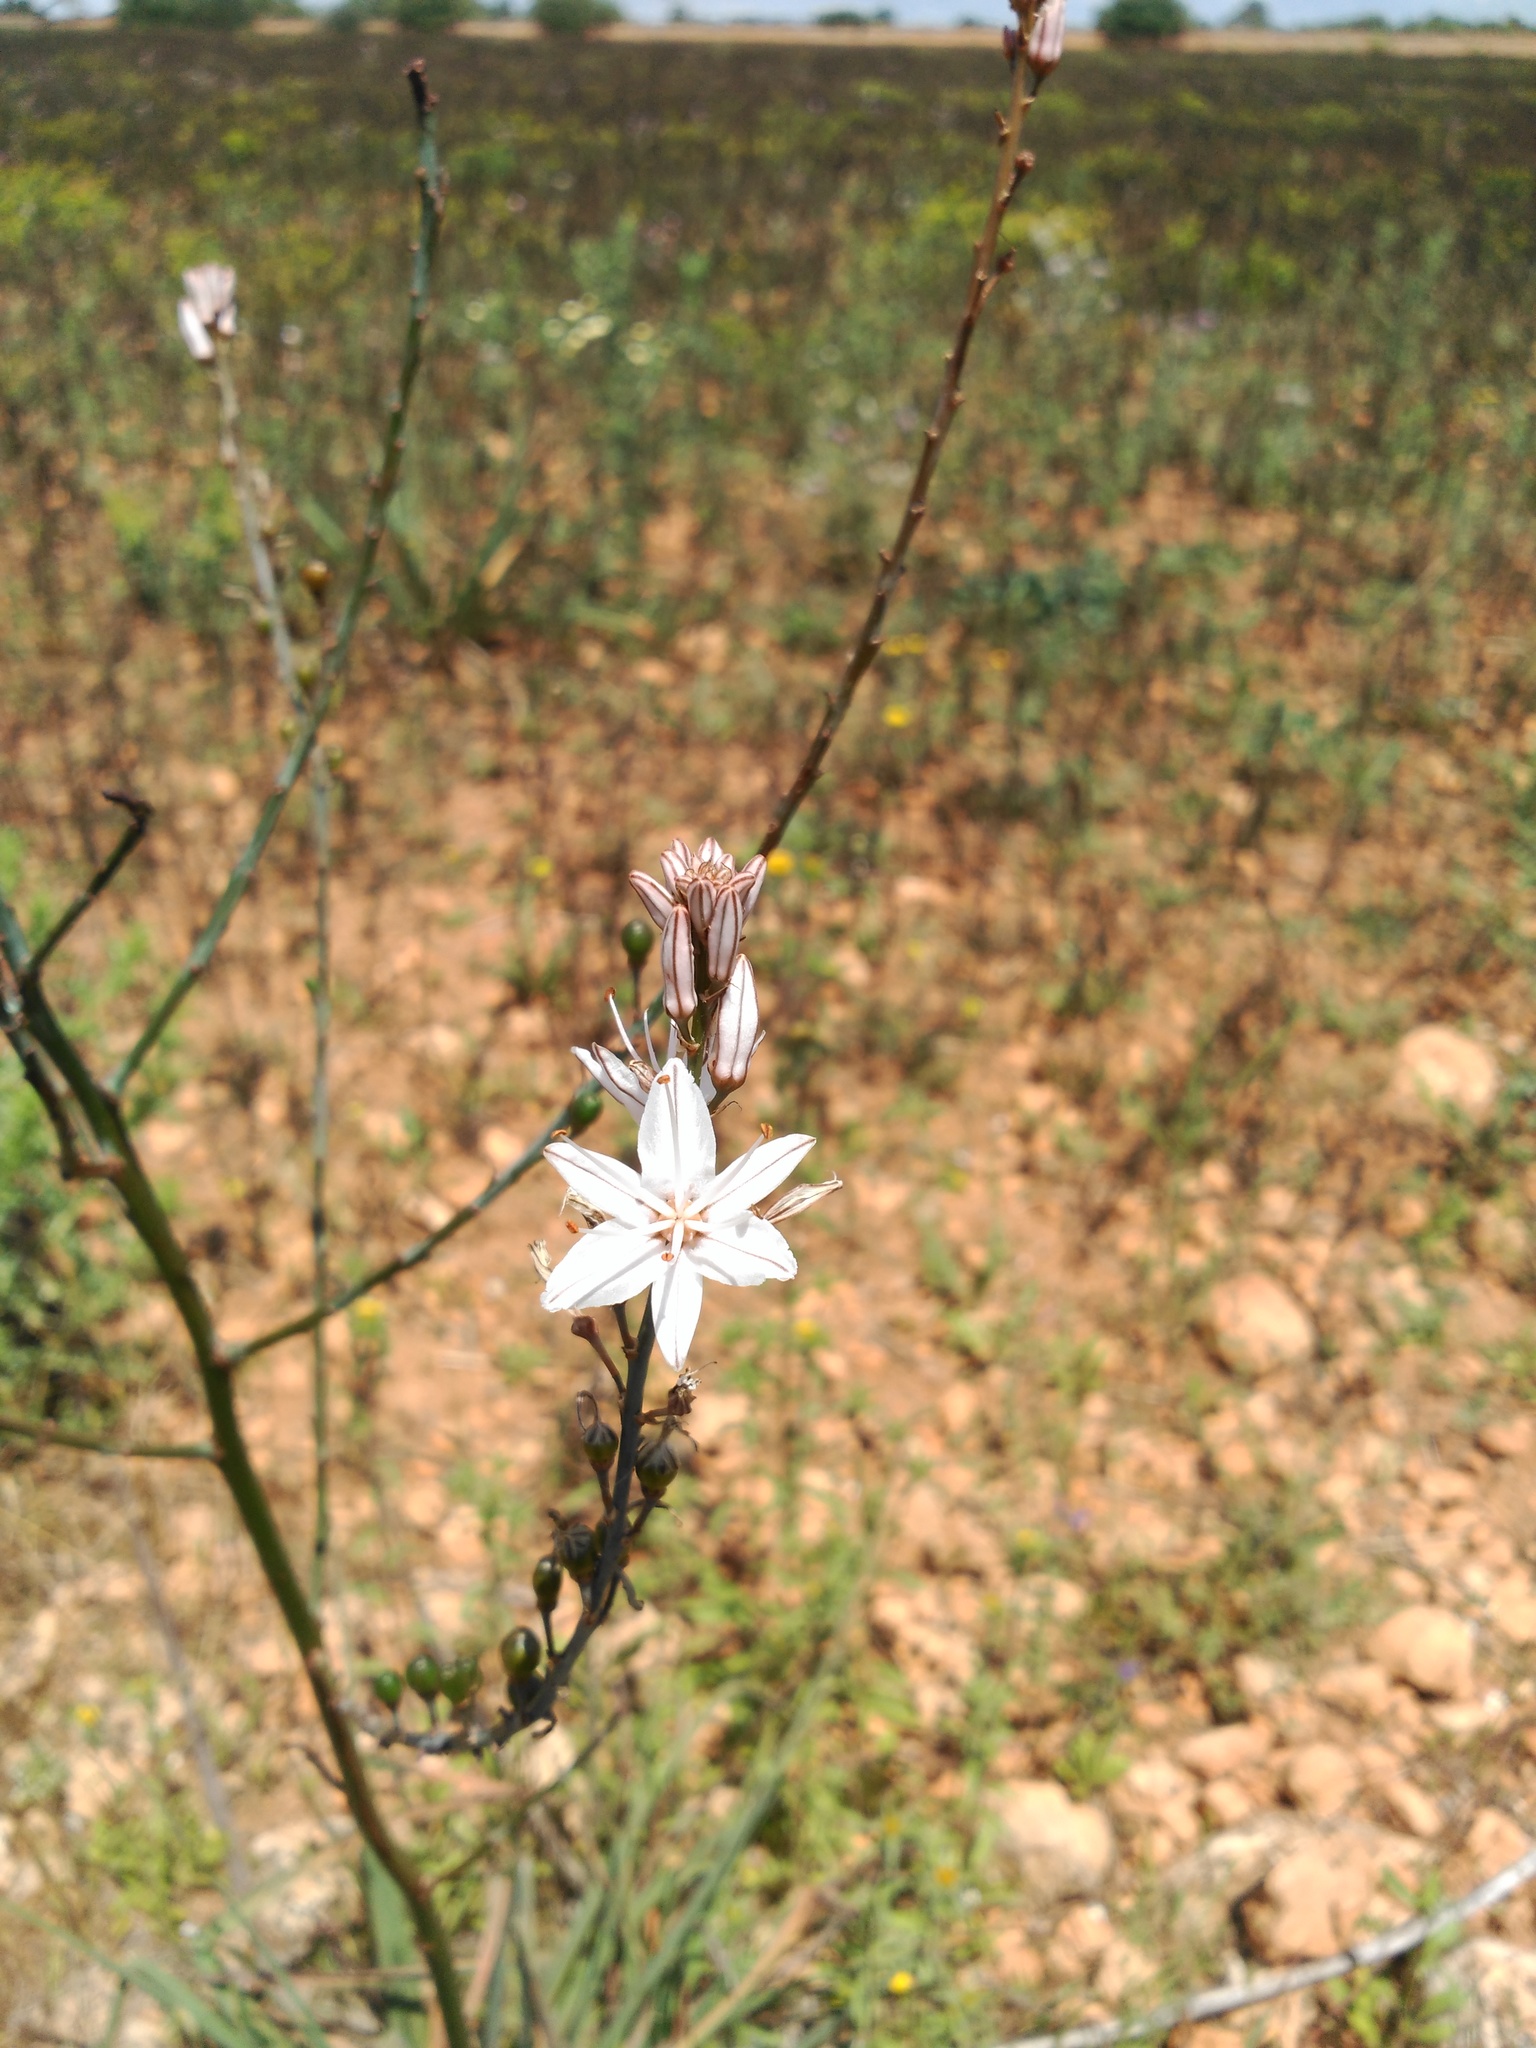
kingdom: Plantae
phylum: Tracheophyta
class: Liliopsida
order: Asparagales
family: Asphodelaceae
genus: Asphodelus
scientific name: Asphodelus aestivus
